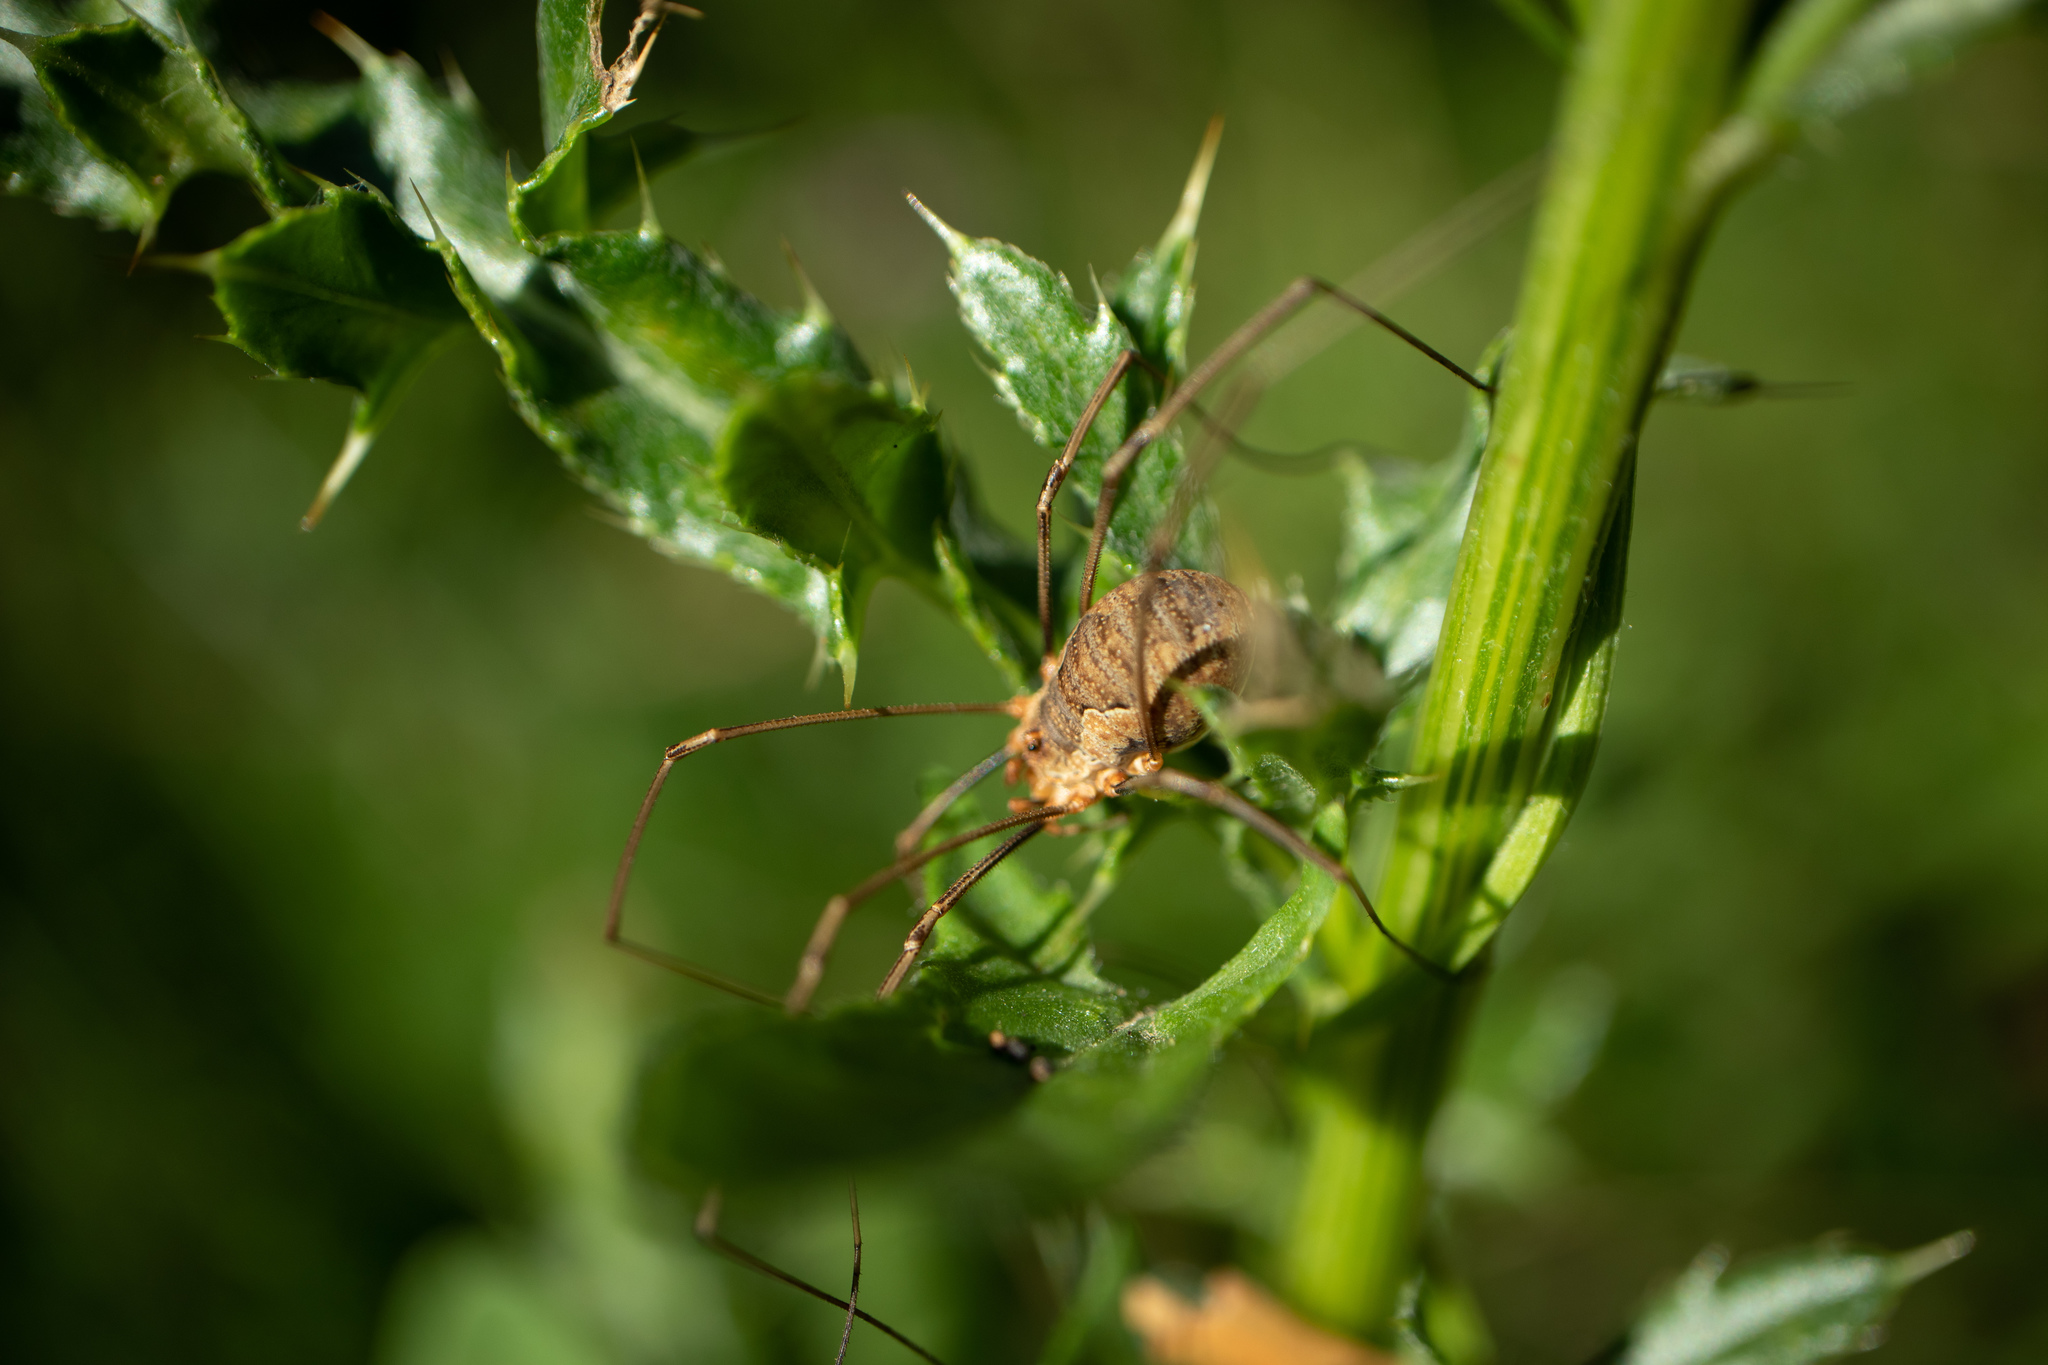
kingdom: Animalia
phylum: Arthropoda
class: Arachnida
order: Opiliones
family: Phalangiidae
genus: Phalangium
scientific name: Phalangium opilio
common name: Daddy longleg
